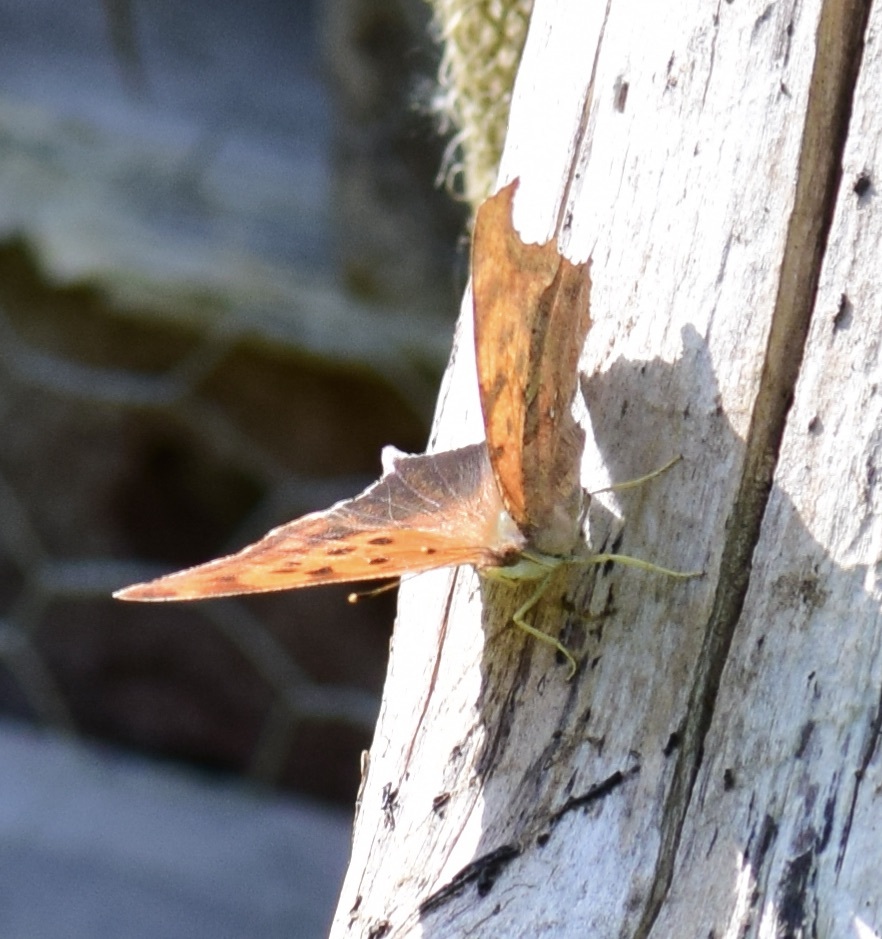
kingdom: Animalia
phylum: Arthropoda
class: Insecta
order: Lepidoptera
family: Nymphalidae
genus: Polygonia
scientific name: Polygonia interrogationis
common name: Question mark
